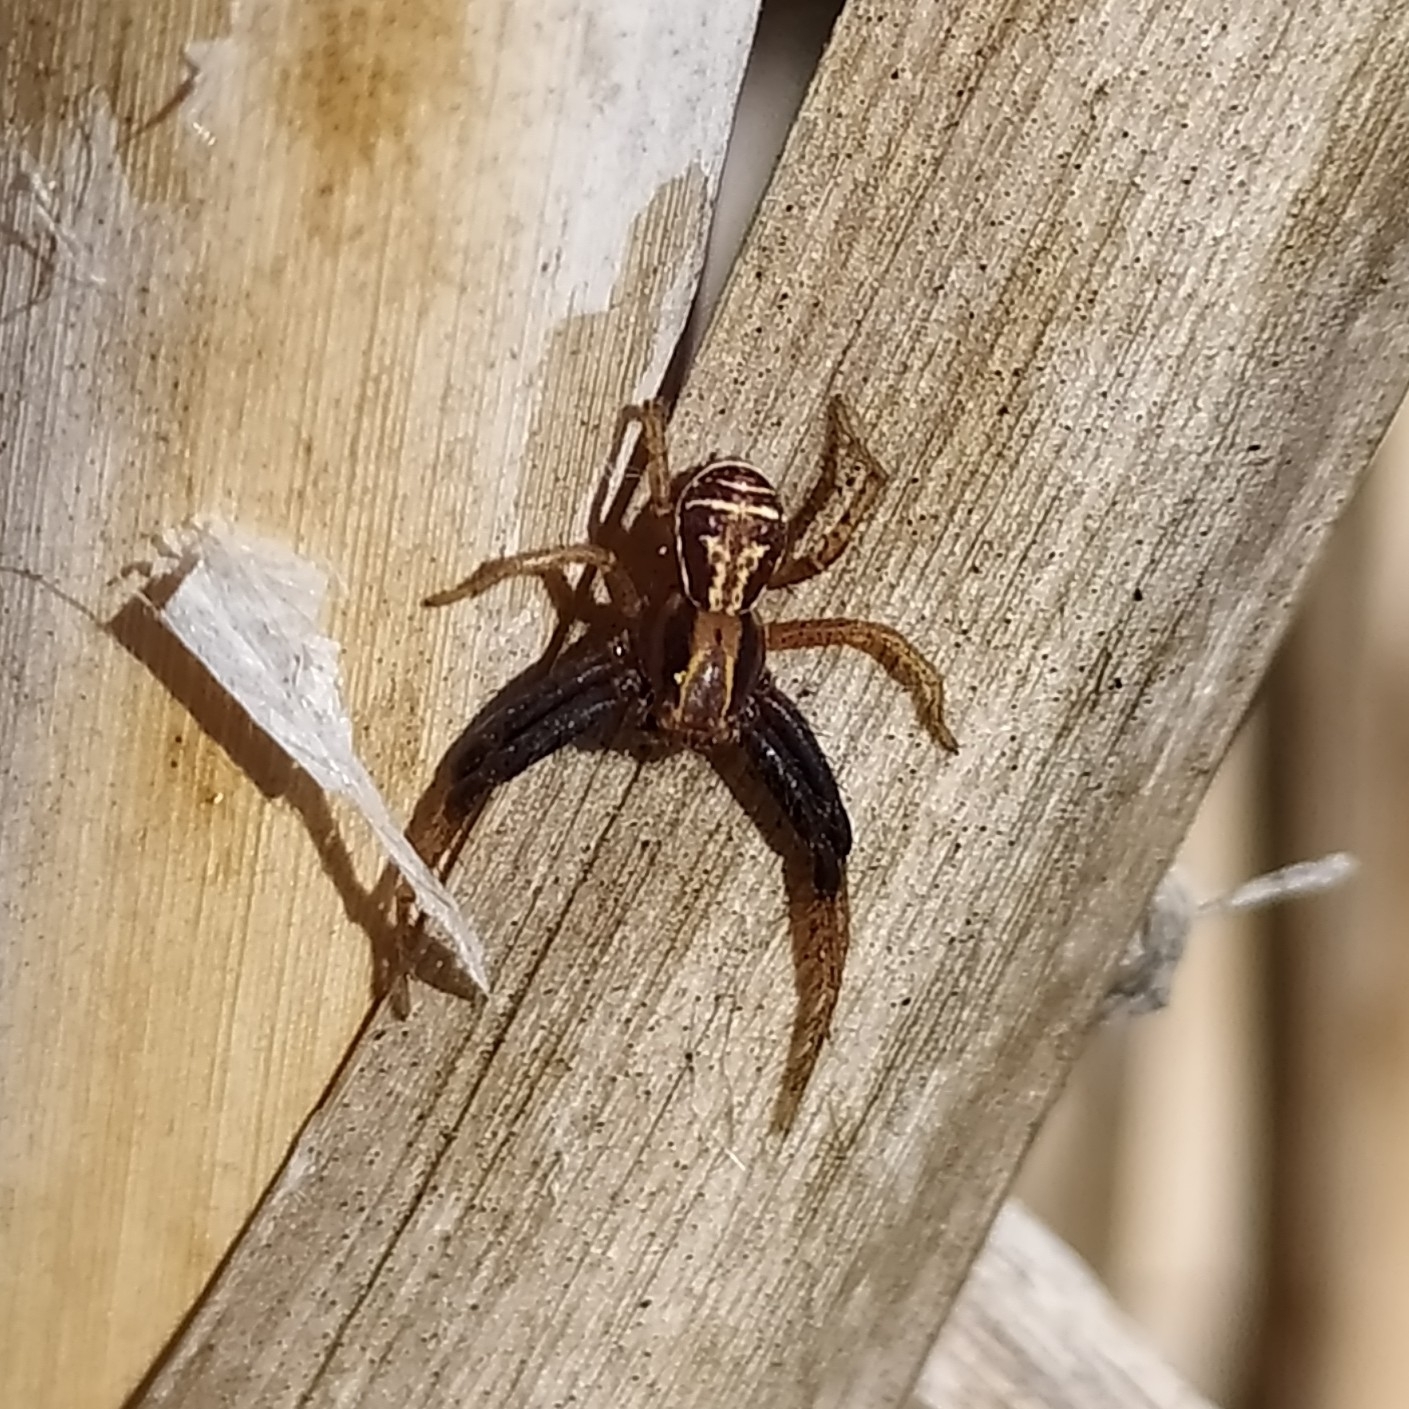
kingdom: Animalia
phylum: Arthropoda
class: Arachnida
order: Araneae
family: Thomisidae
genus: Xysticus
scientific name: Xysticus ulmi
